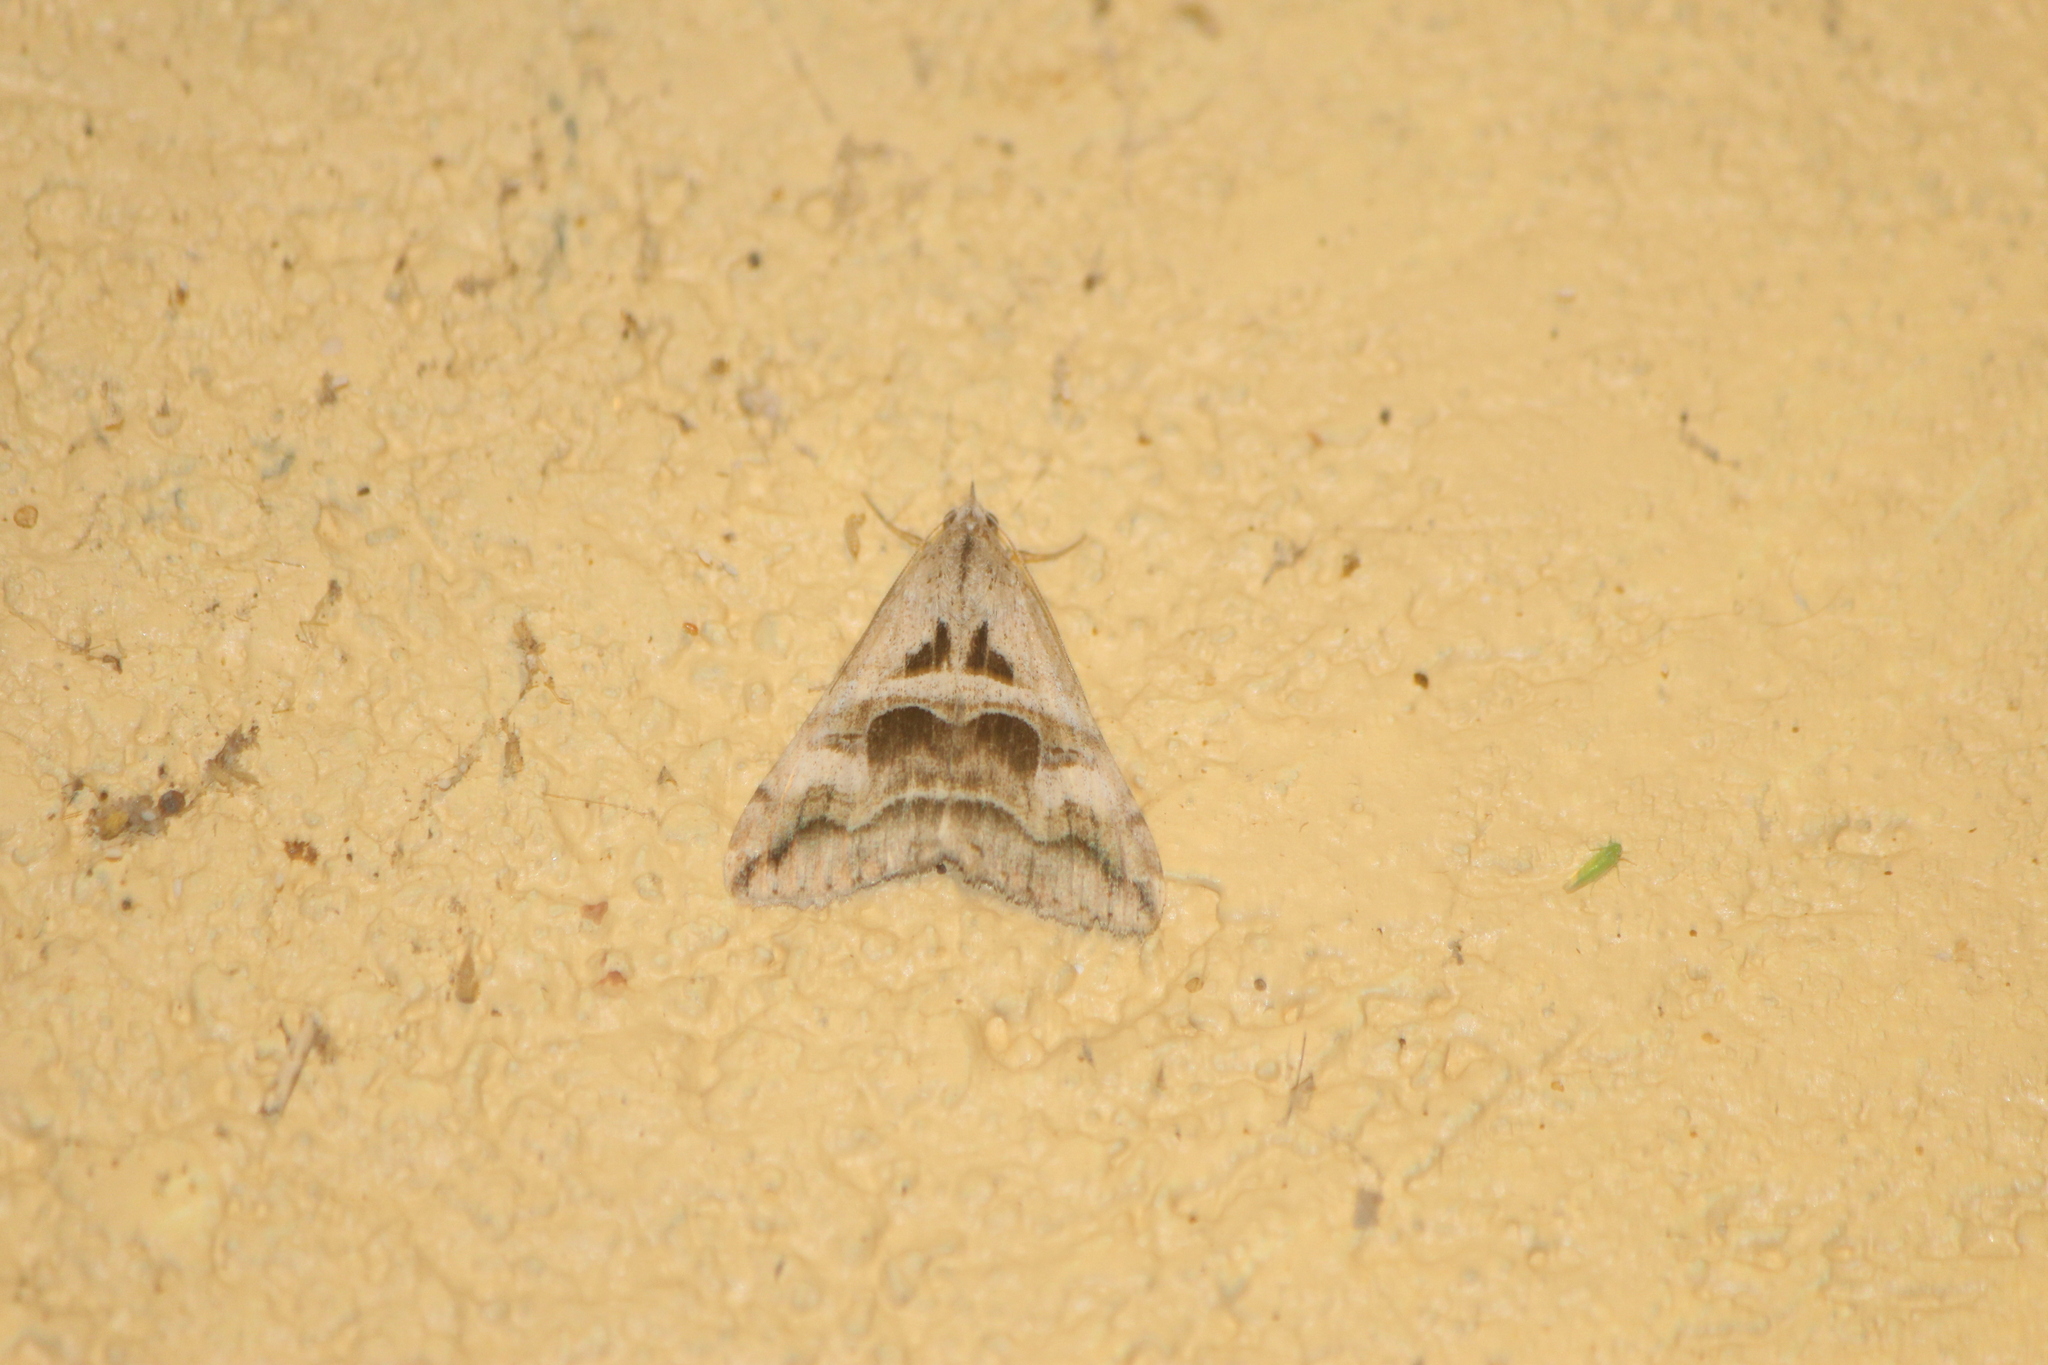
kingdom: Animalia
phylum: Arthropoda
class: Insecta
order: Lepidoptera
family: Erebidae
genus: Melipotis
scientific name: Melipotis cellaris
